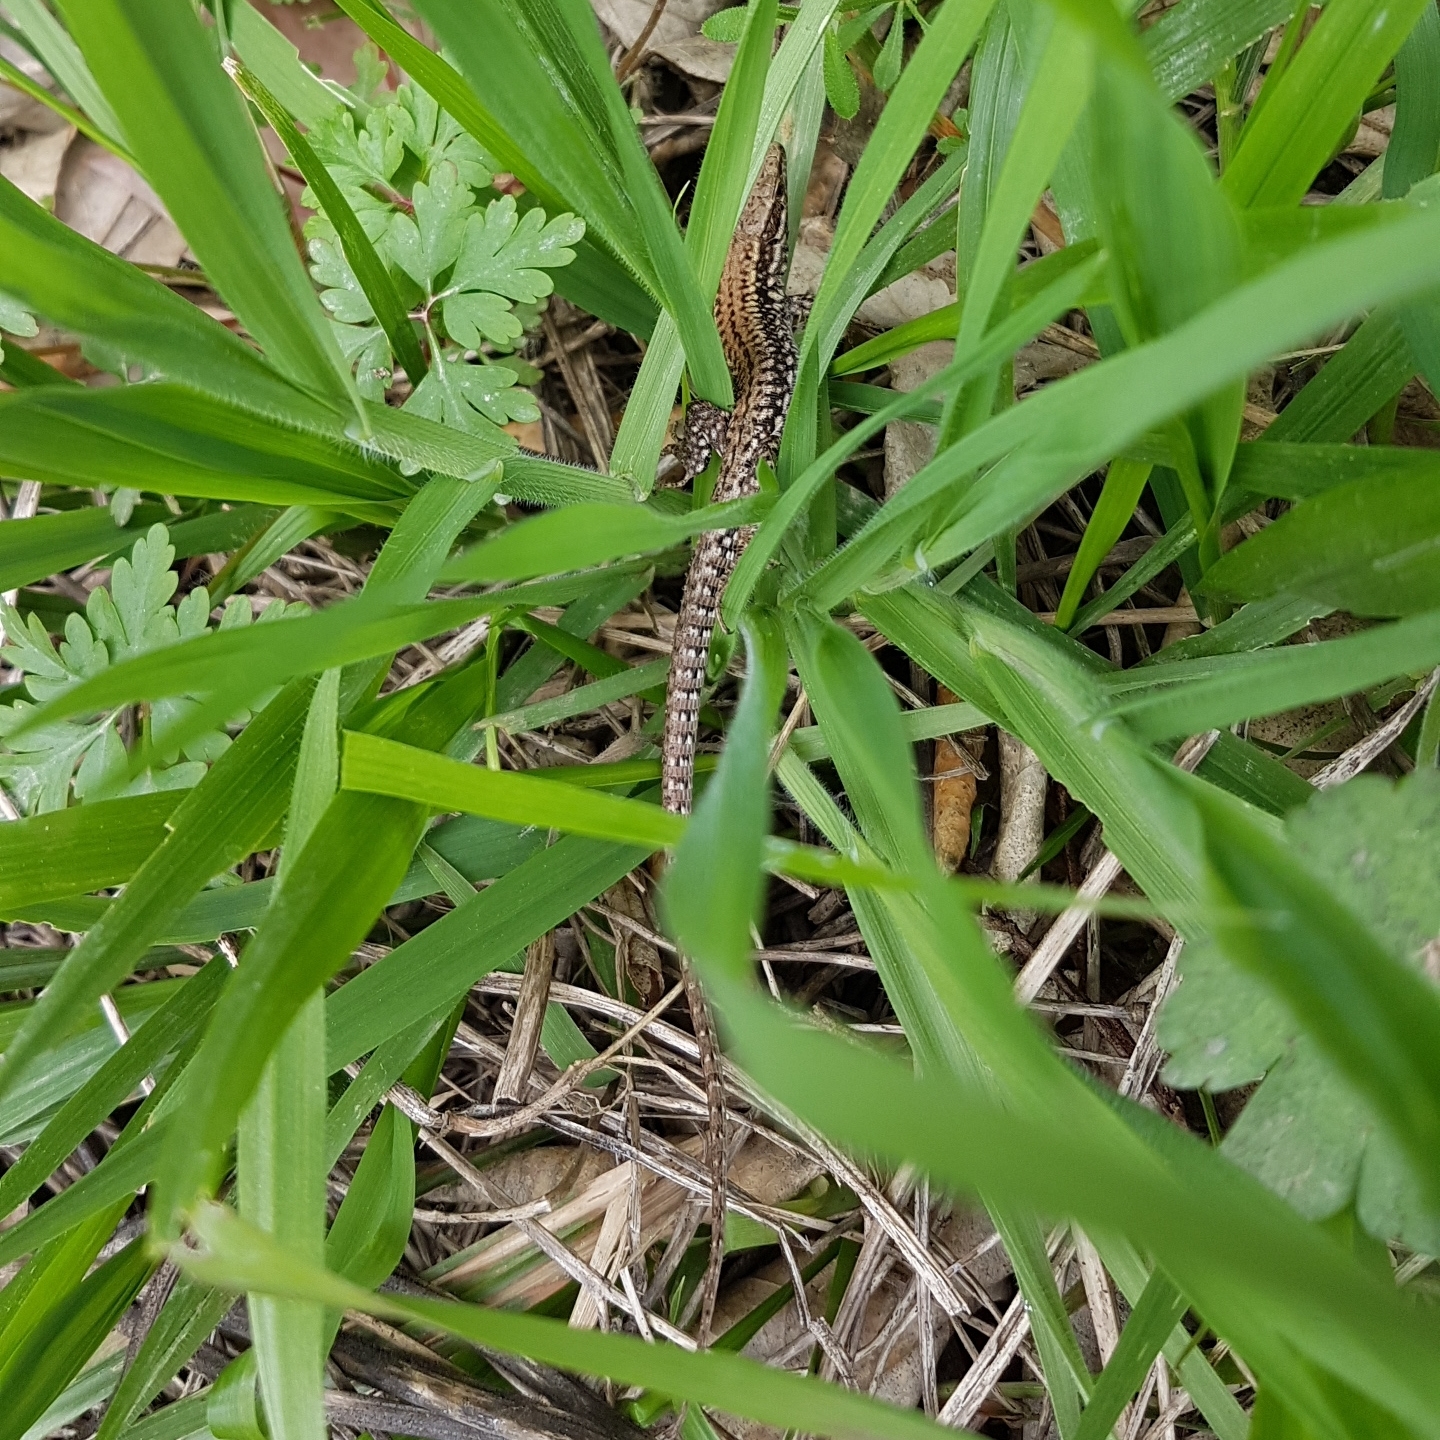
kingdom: Animalia
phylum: Chordata
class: Squamata
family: Lacertidae
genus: Podarcis
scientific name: Podarcis muralis
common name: Common wall lizard
